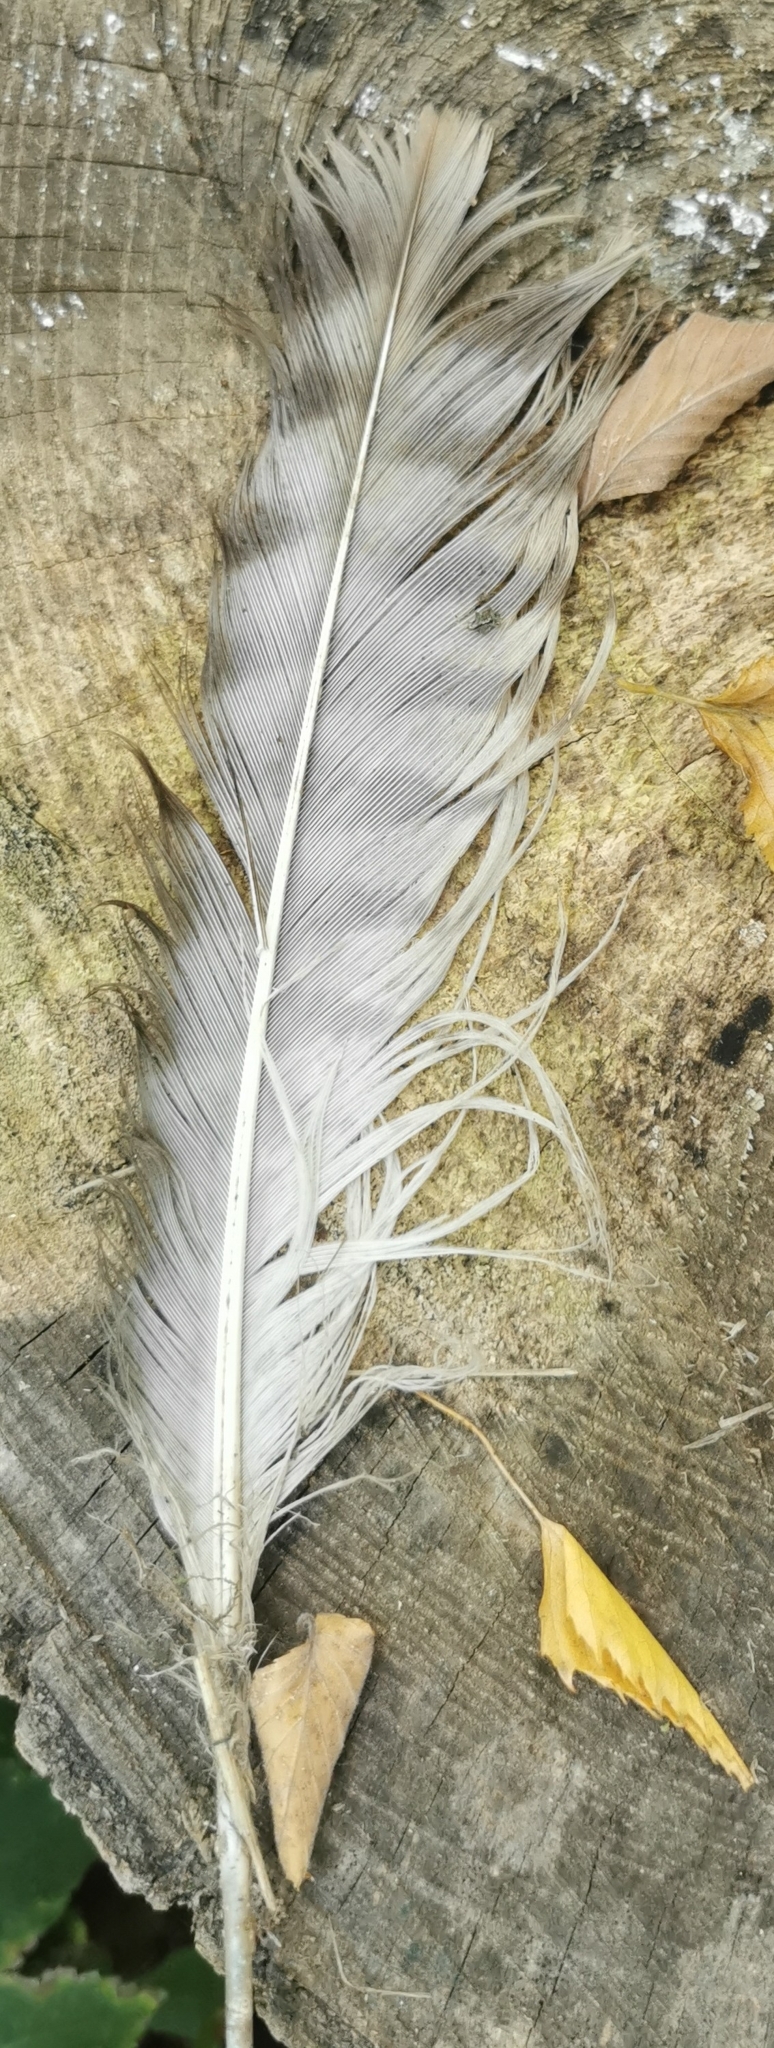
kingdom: Animalia
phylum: Chordata
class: Aves
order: Accipitriformes
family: Accipitridae
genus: Buteo
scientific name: Buteo buteo
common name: Common buzzard
